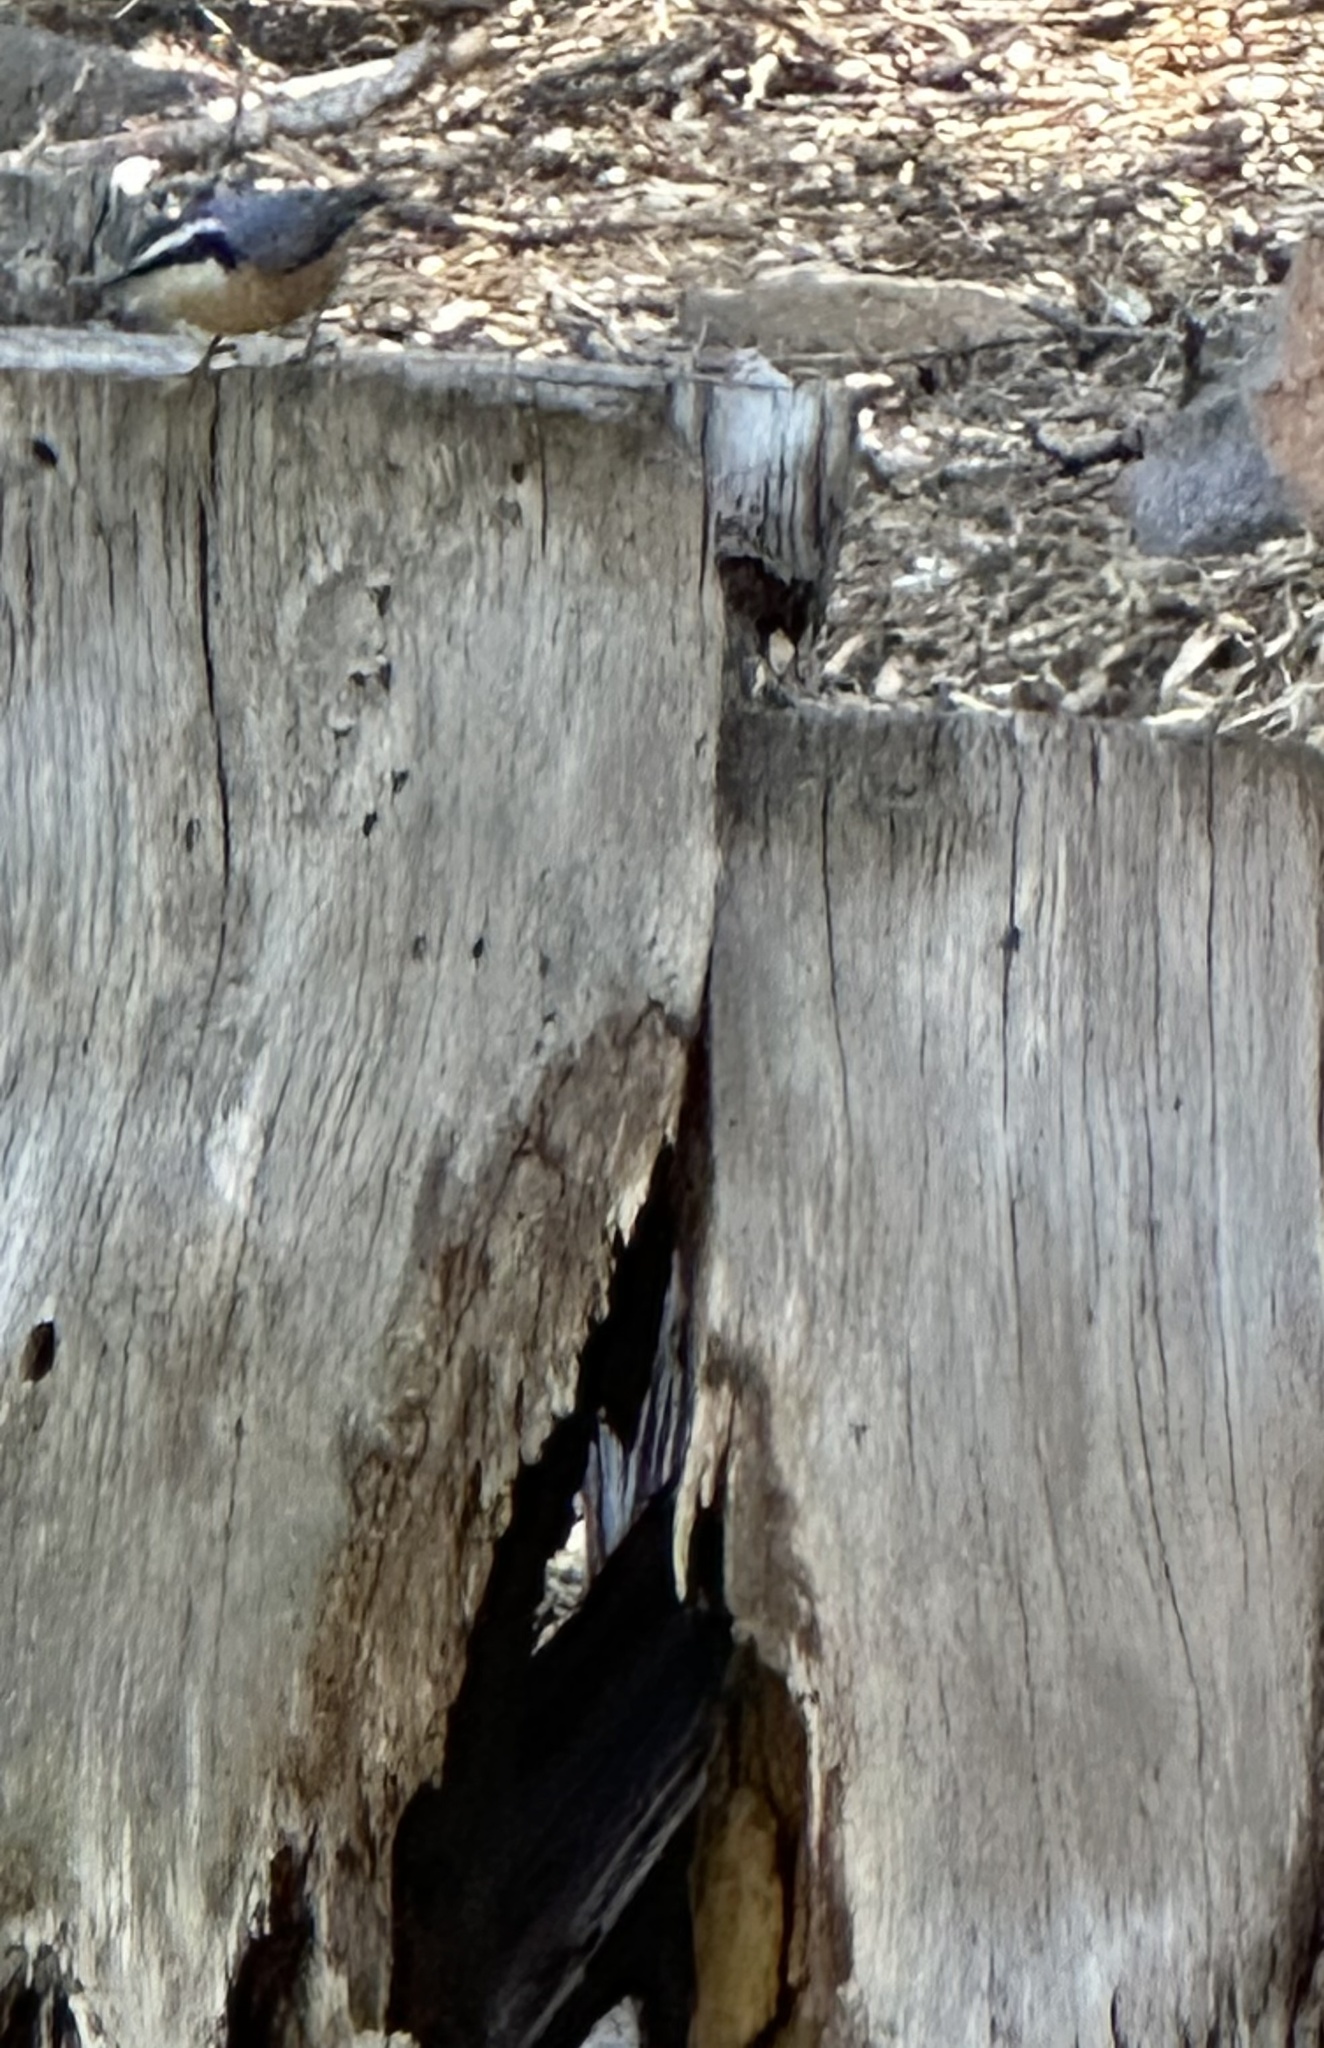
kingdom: Animalia
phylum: Chordata
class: Aves
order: Passeriformes
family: Sittidae
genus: Sitta
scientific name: Sitta canadensis
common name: Red-breasted nuthatch
